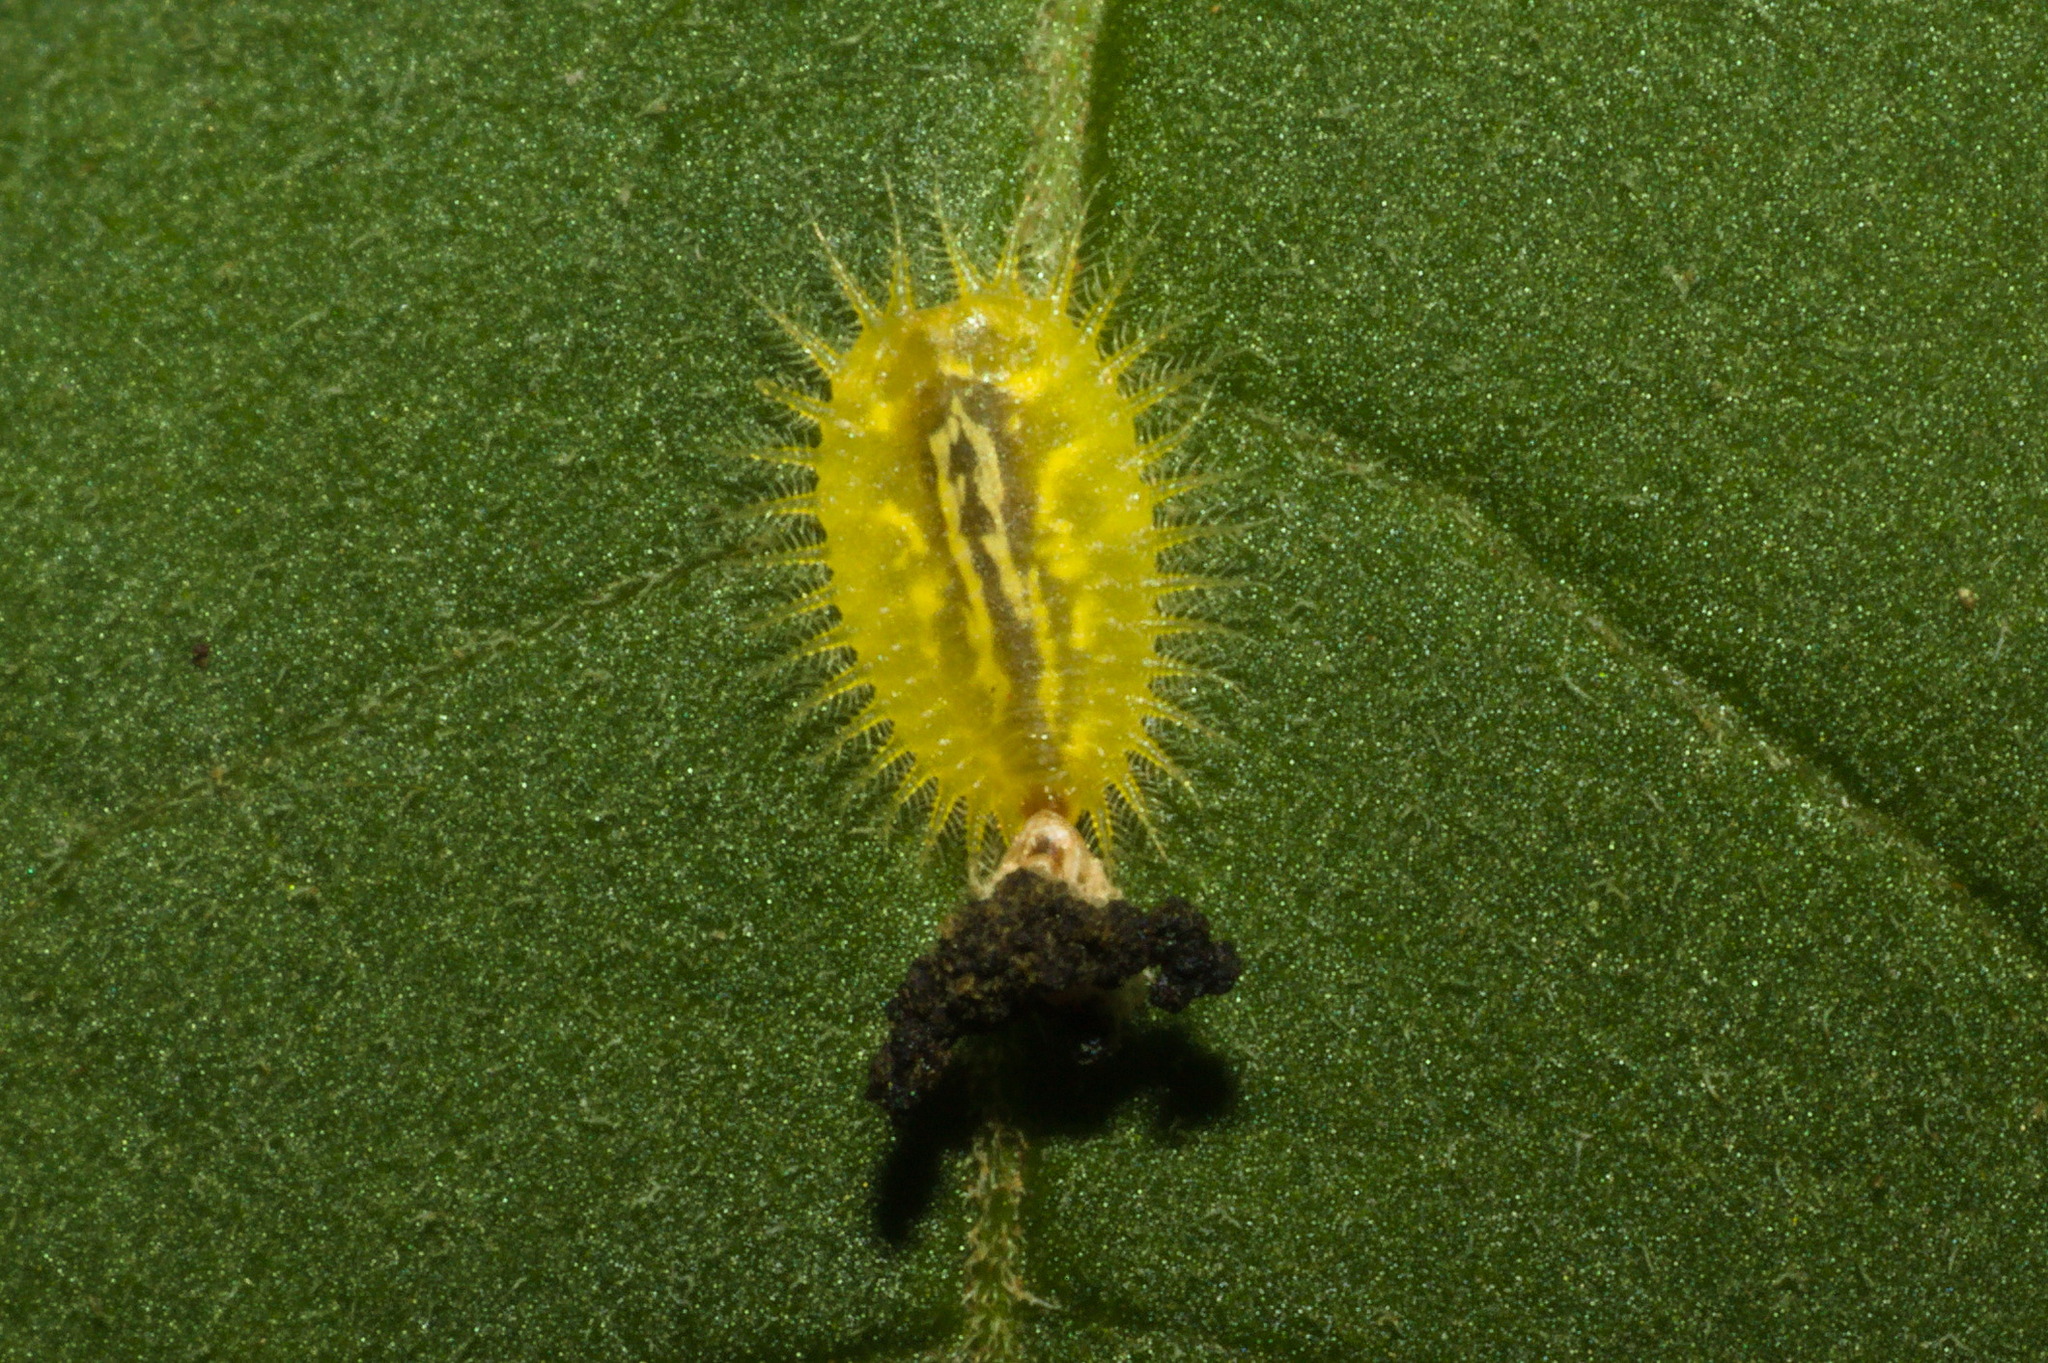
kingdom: Animalia
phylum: Arthropoda
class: Insecta
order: Coleoptera
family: Chrysomelidae
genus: Plagiometriona
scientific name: Plagiometriona herbea
